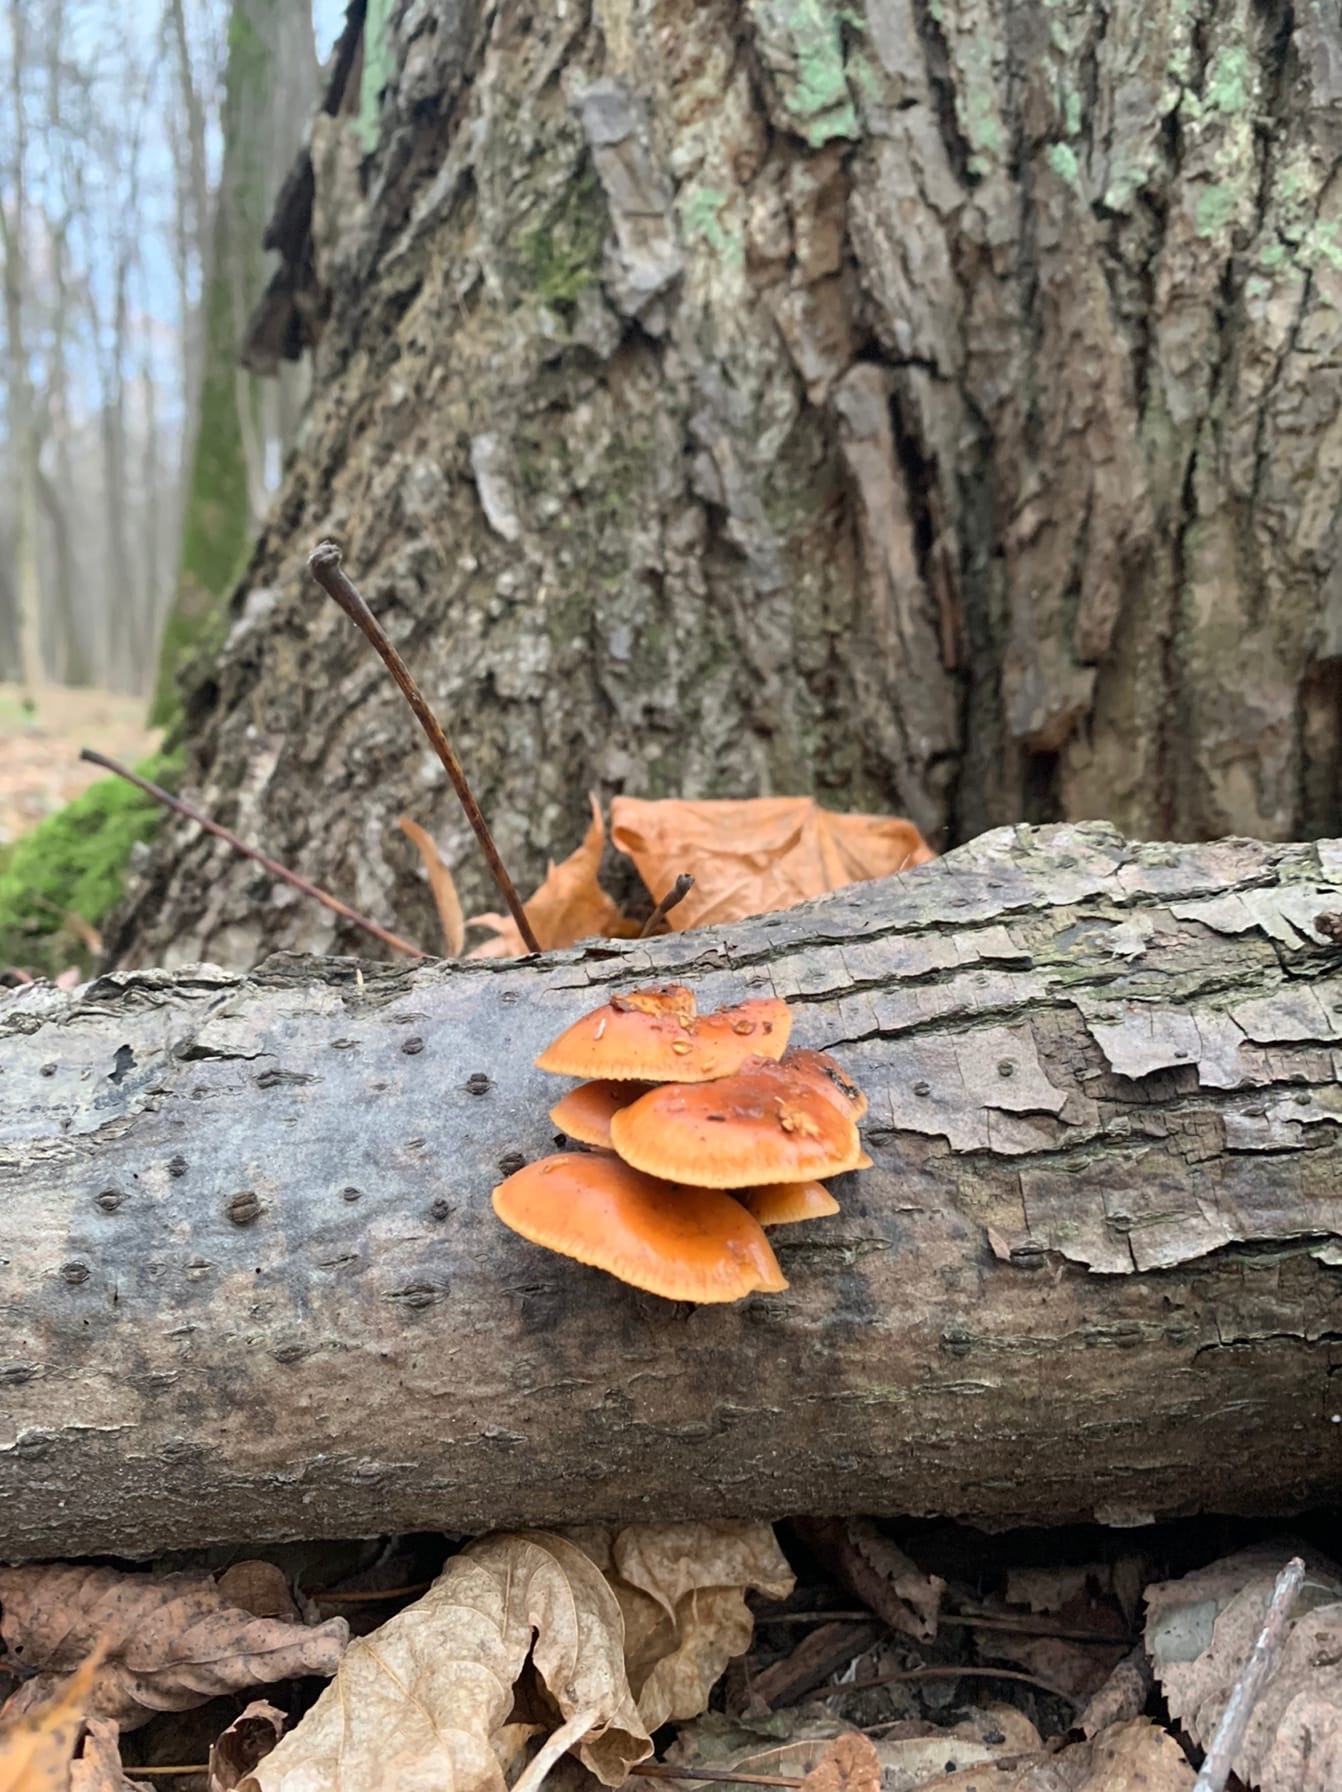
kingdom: Fungi
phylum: Basidiomycota
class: Agaricomycetes
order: Agaricales
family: Physalacriaceae
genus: Flammulina
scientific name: Flammulina
